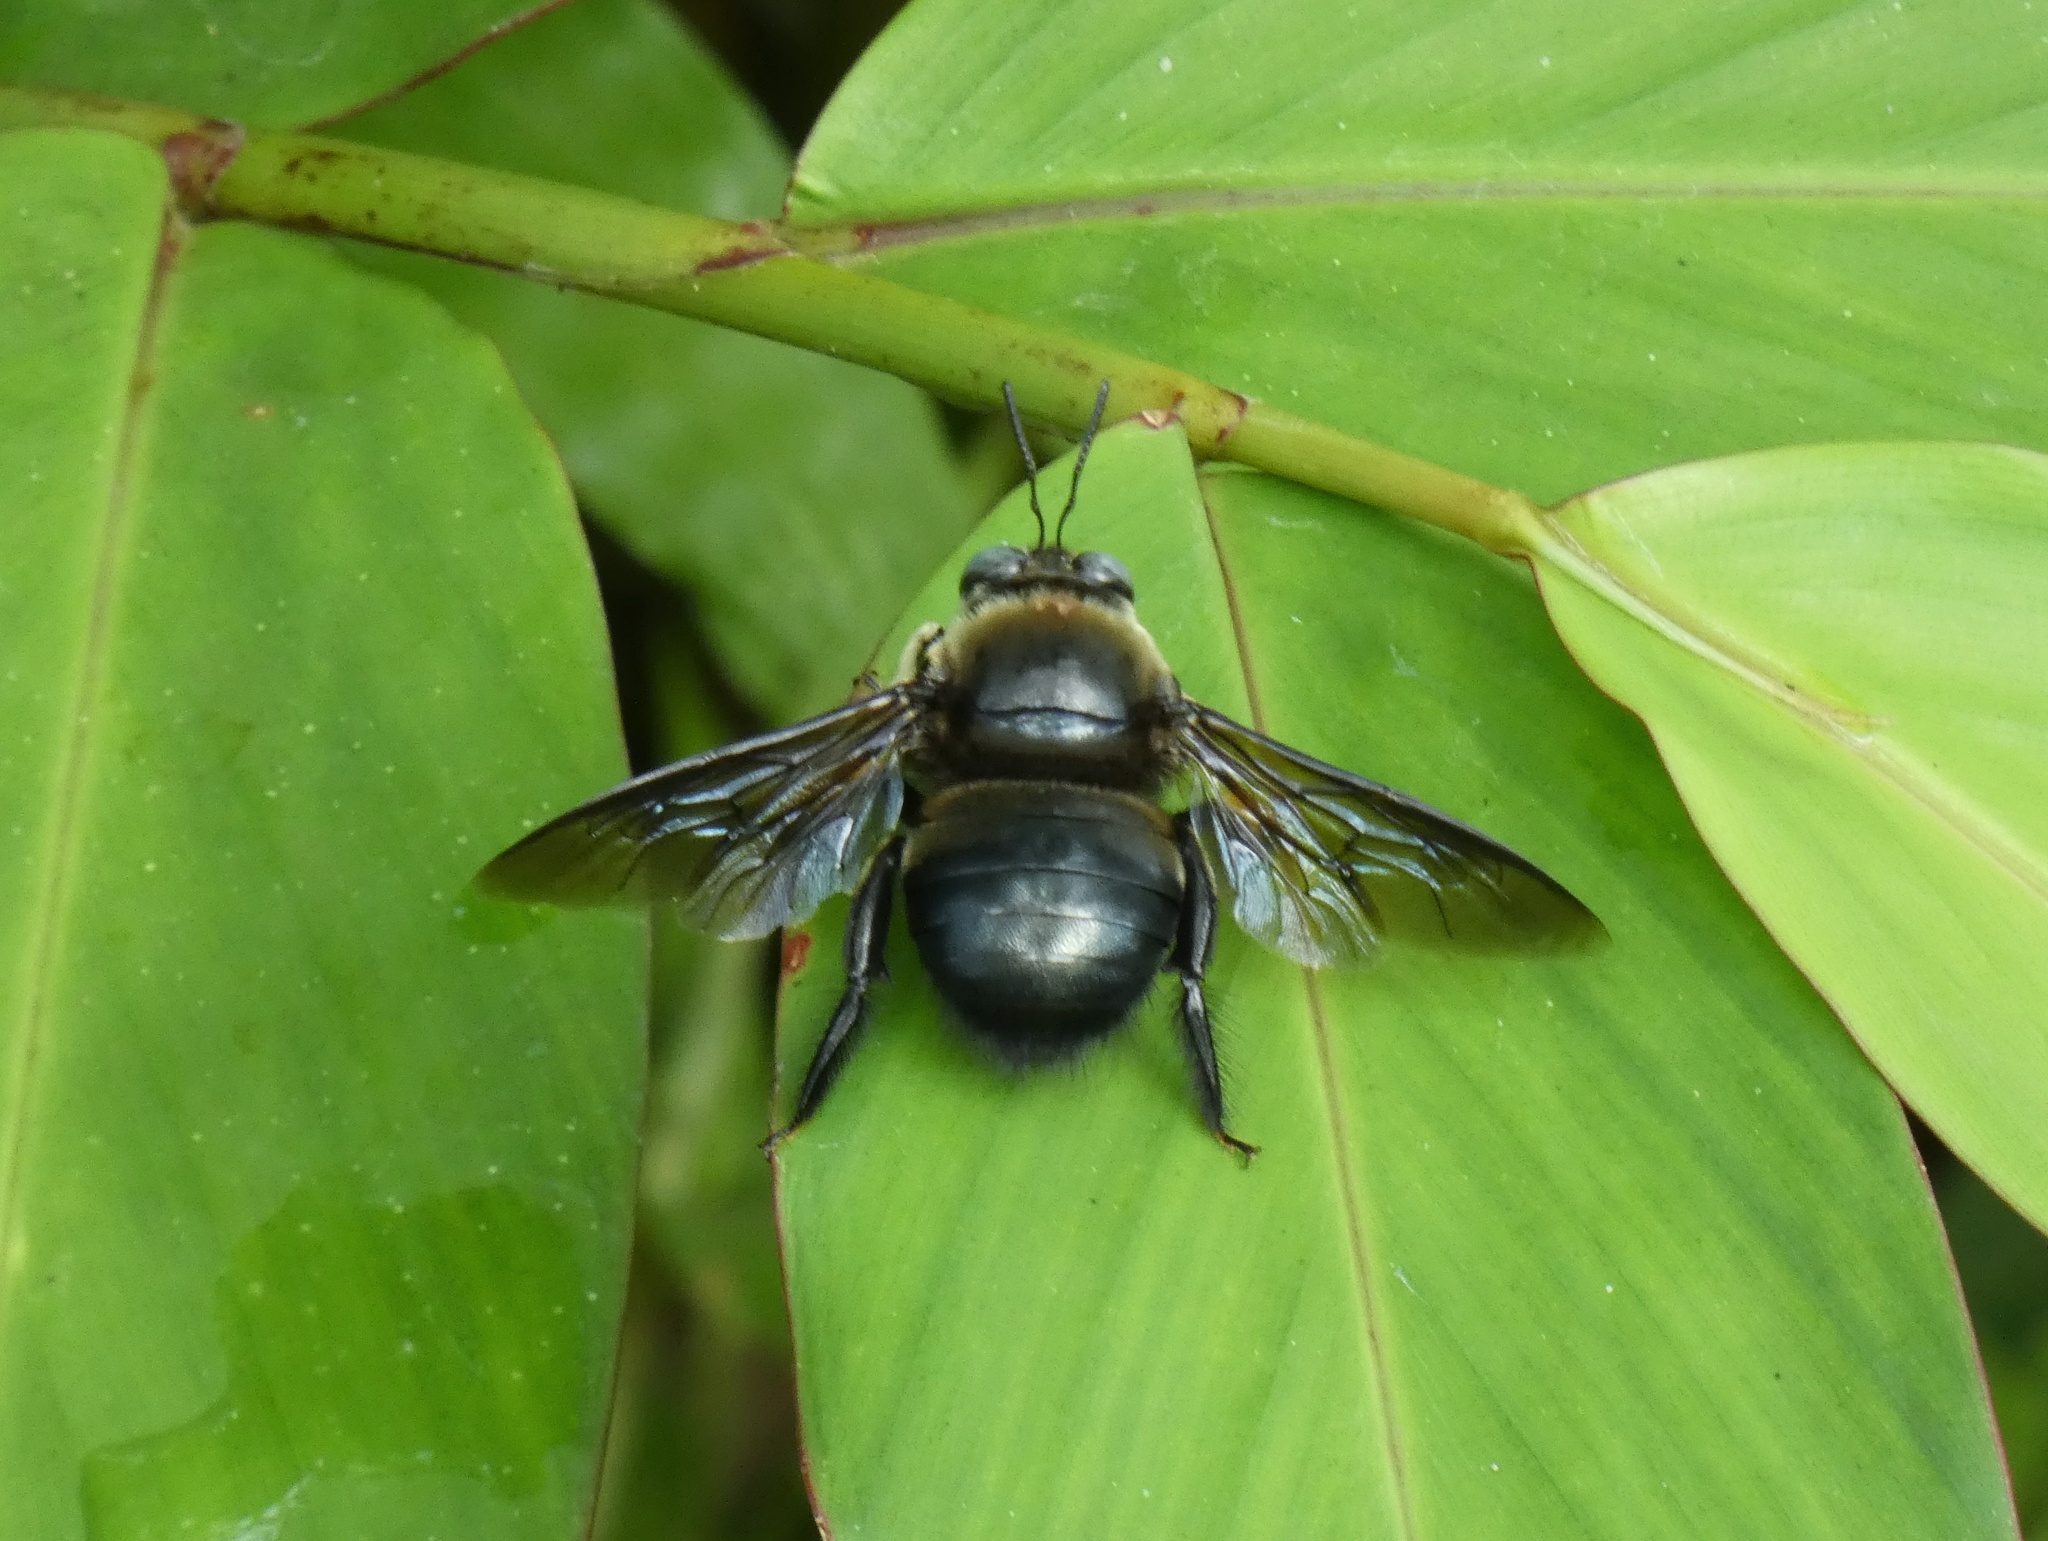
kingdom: Animalia
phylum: Arthropoda
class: Insecta
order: Hymenoptera
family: Apidae
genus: Xylocopa
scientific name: Xylocopa fuliginata
